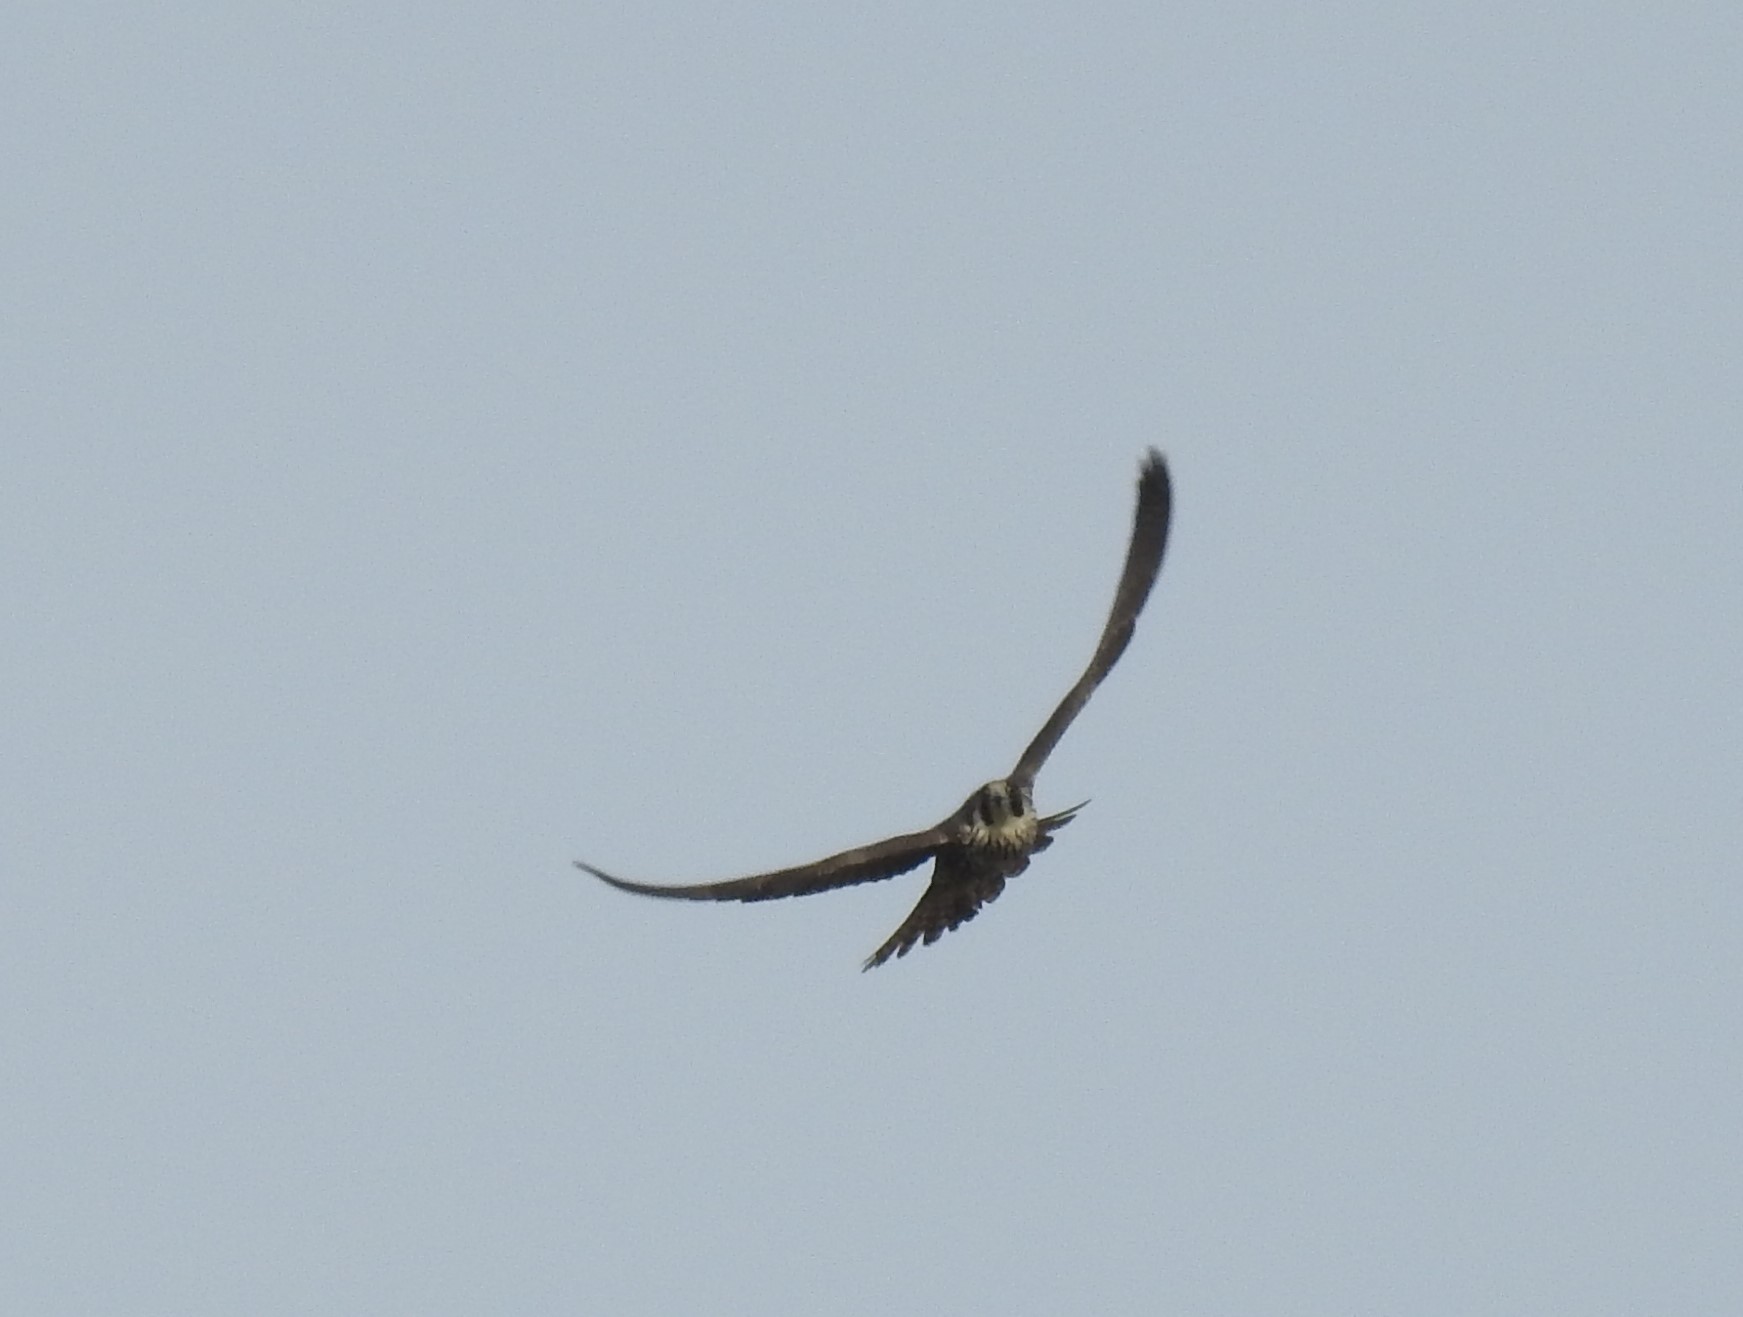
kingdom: Animalia
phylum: Chordata
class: Aves
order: Falconiformes
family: Falconidae
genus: Falco
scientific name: Falco peregrinus
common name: Peregrine falcon
